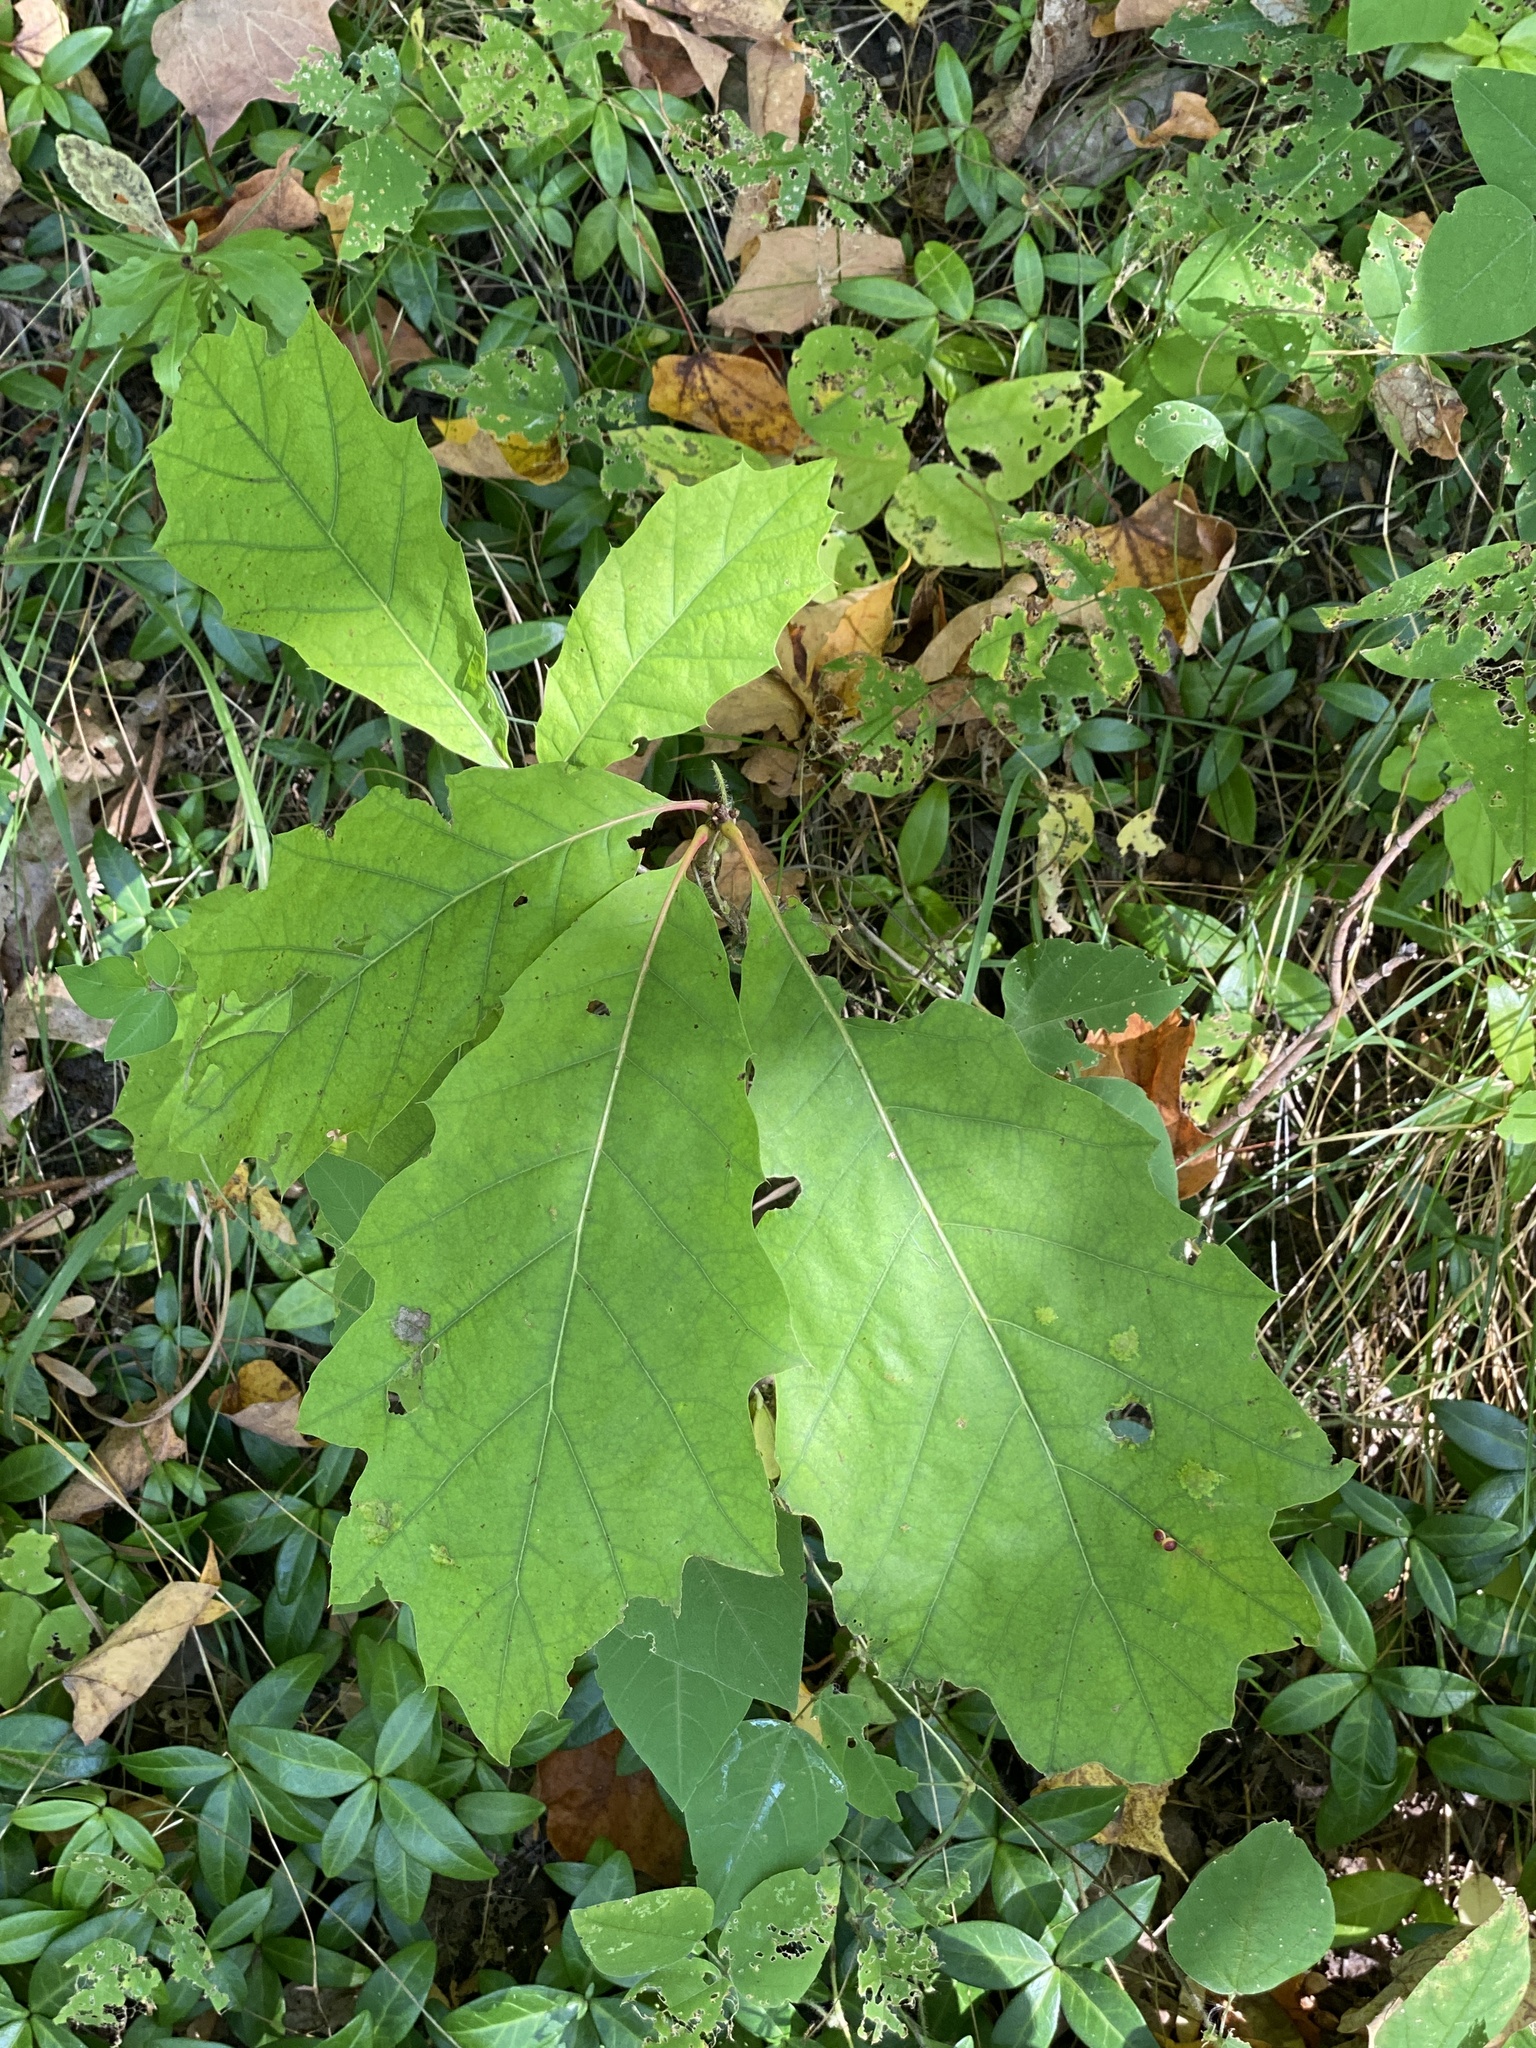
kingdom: Plantae
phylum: Tracheophyta
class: Magnoliopsida
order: Fagales
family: Fagaceae
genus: Quercus
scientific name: Quercus rubra
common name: Red oak
